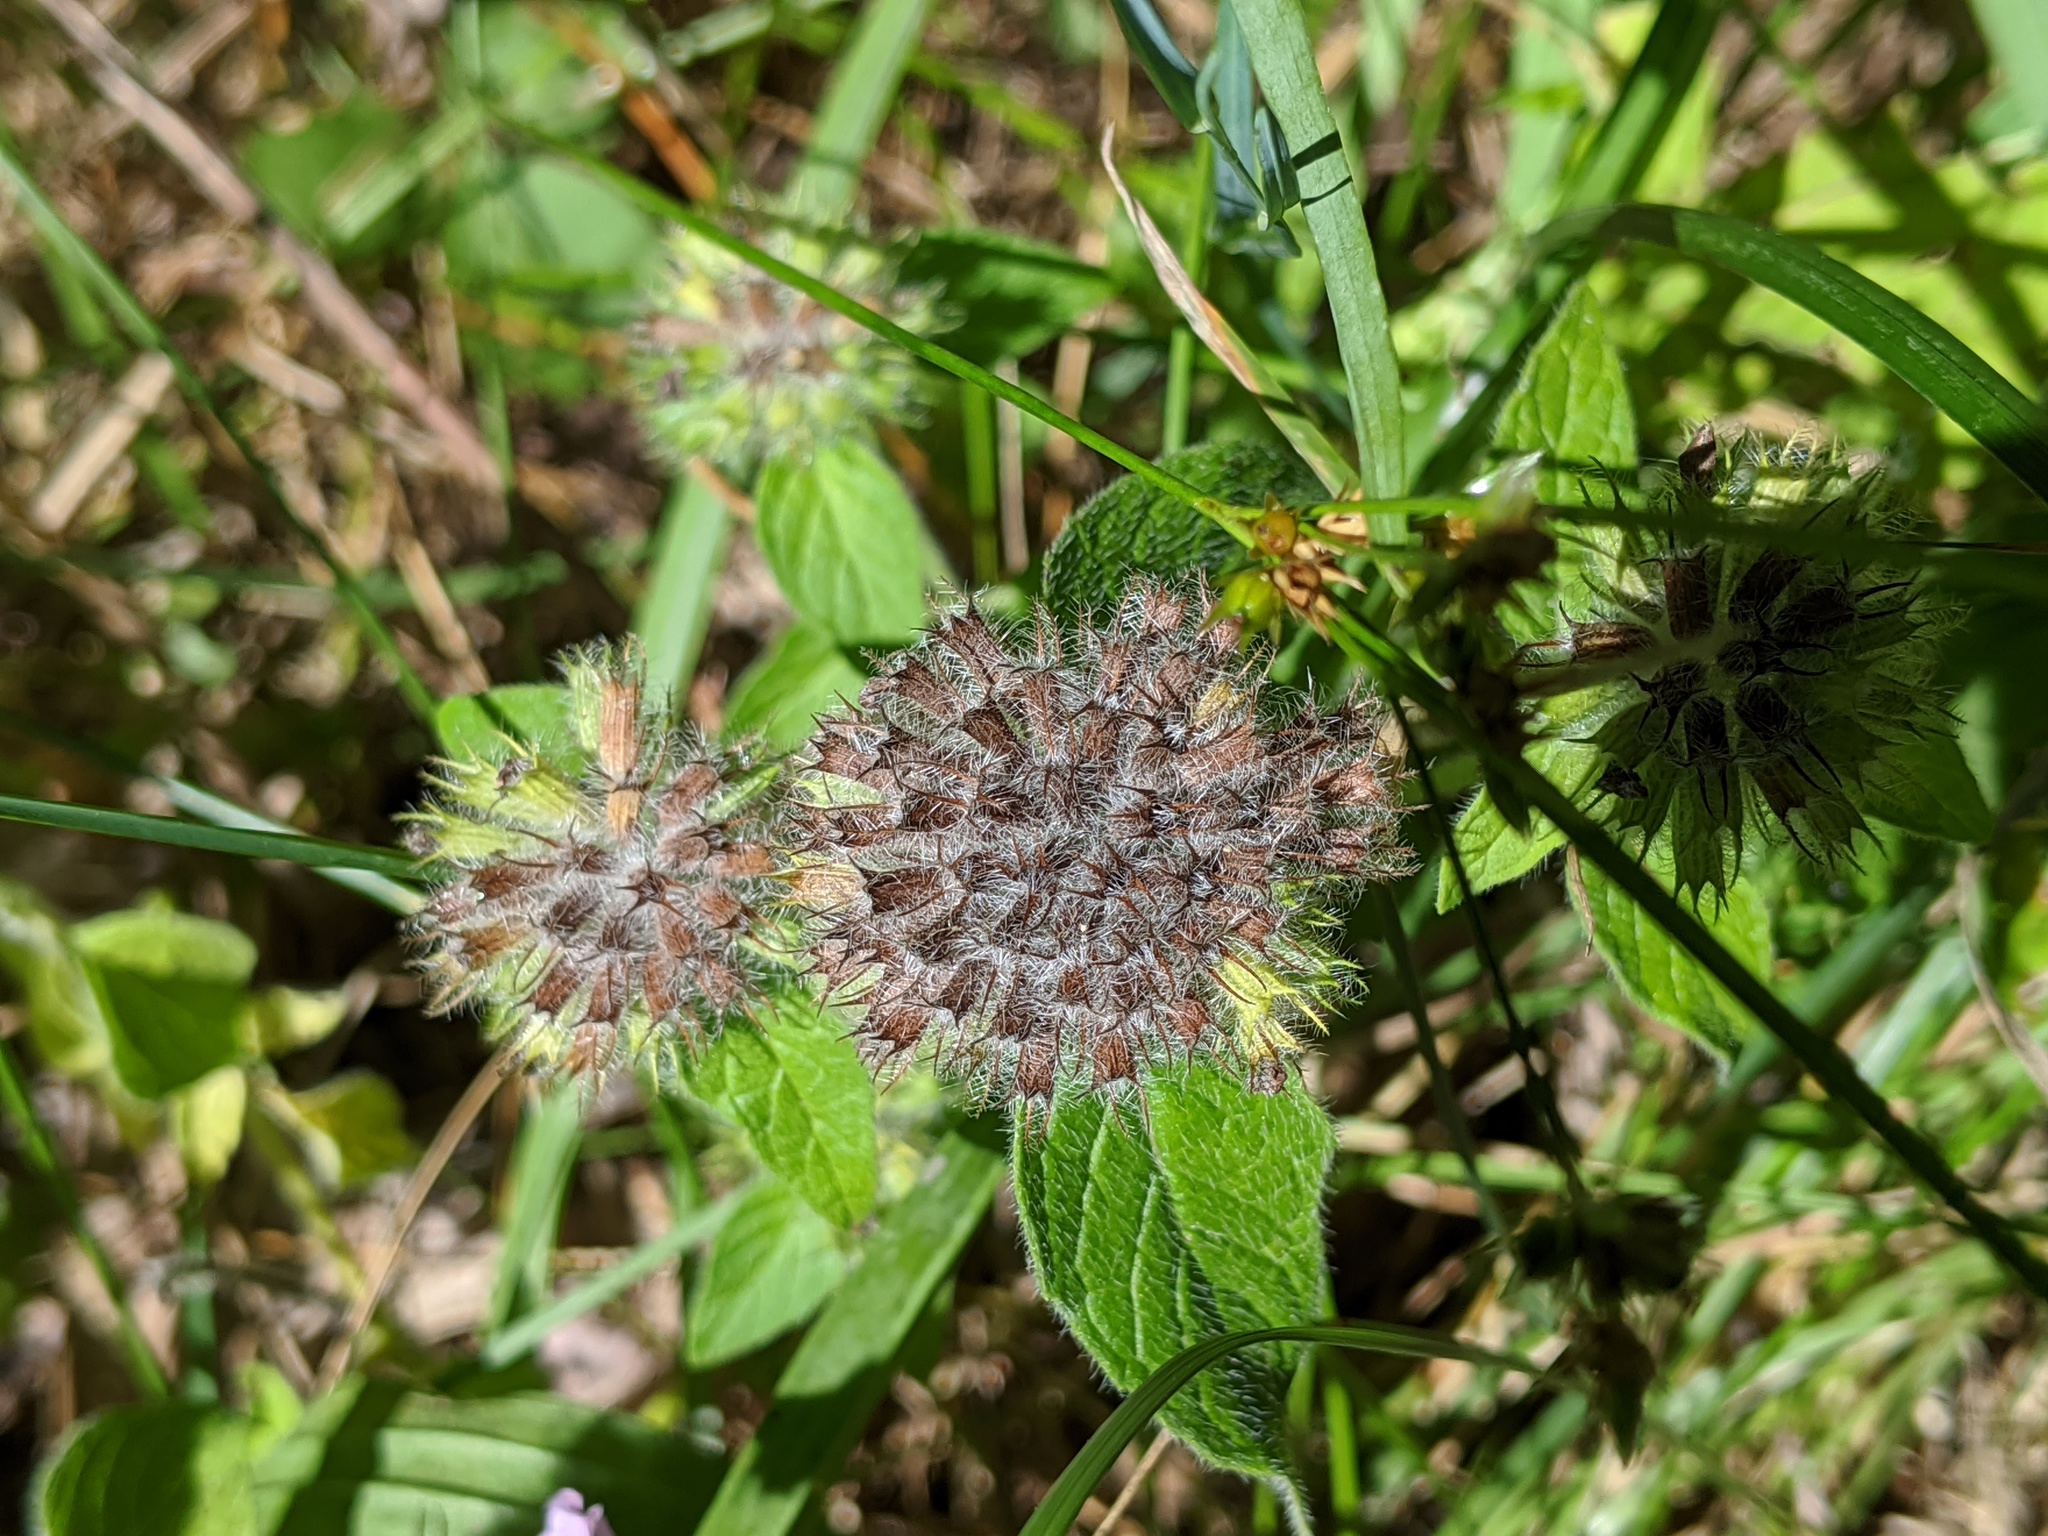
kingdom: Plantae
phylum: Tracheophyta
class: Magnoliopsida
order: Lamiales
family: Lamiaceae
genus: Clinopodium
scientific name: Clinopodium vulgare
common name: Wild basil
